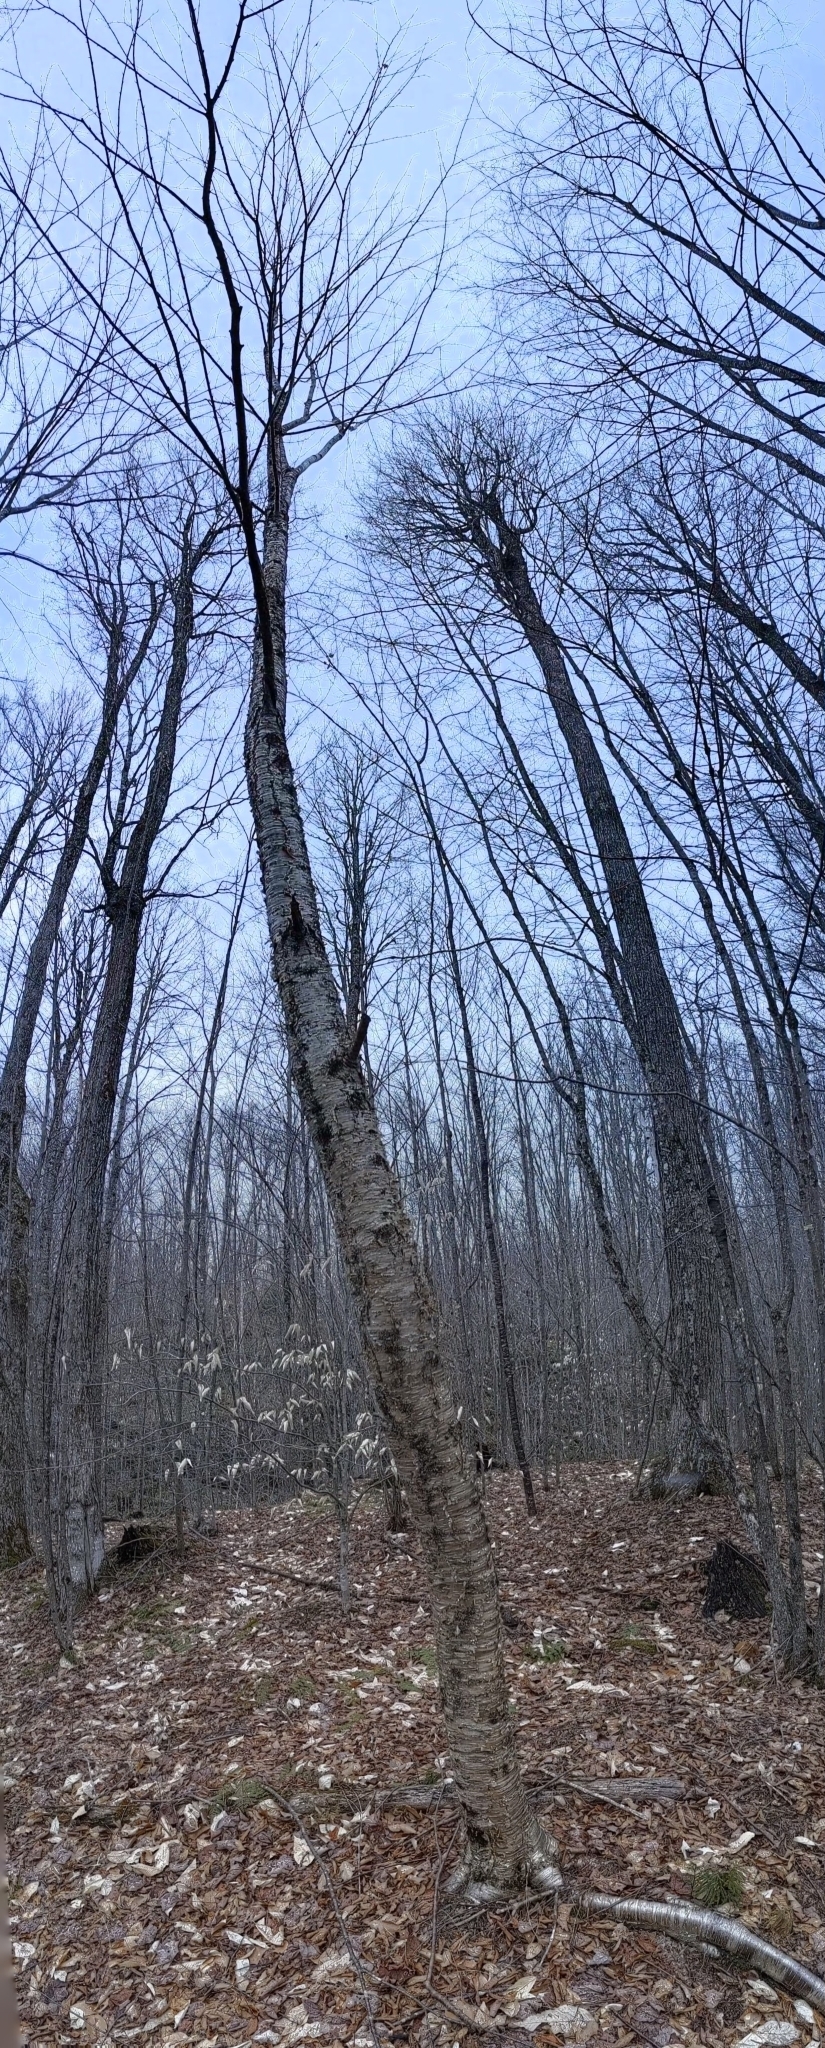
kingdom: Plantae
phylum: Tracheophyta
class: Magnoliopsida
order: Fagales
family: Betulaceae
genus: Betula
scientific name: Betula alleghaniensis
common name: Yellow birch
